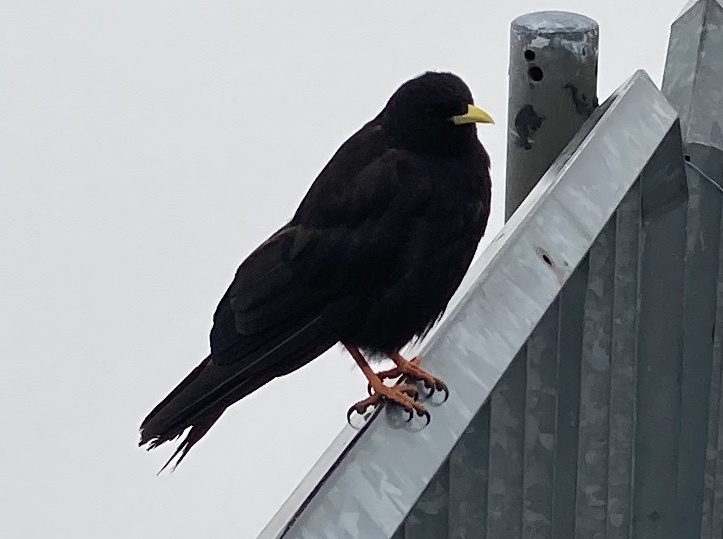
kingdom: Animalia
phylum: Chordata
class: Aves
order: Passeriformes
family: Corvidae
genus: Pyrrhocorax
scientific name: Pyrrhocorax graculus
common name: Alpine chough
